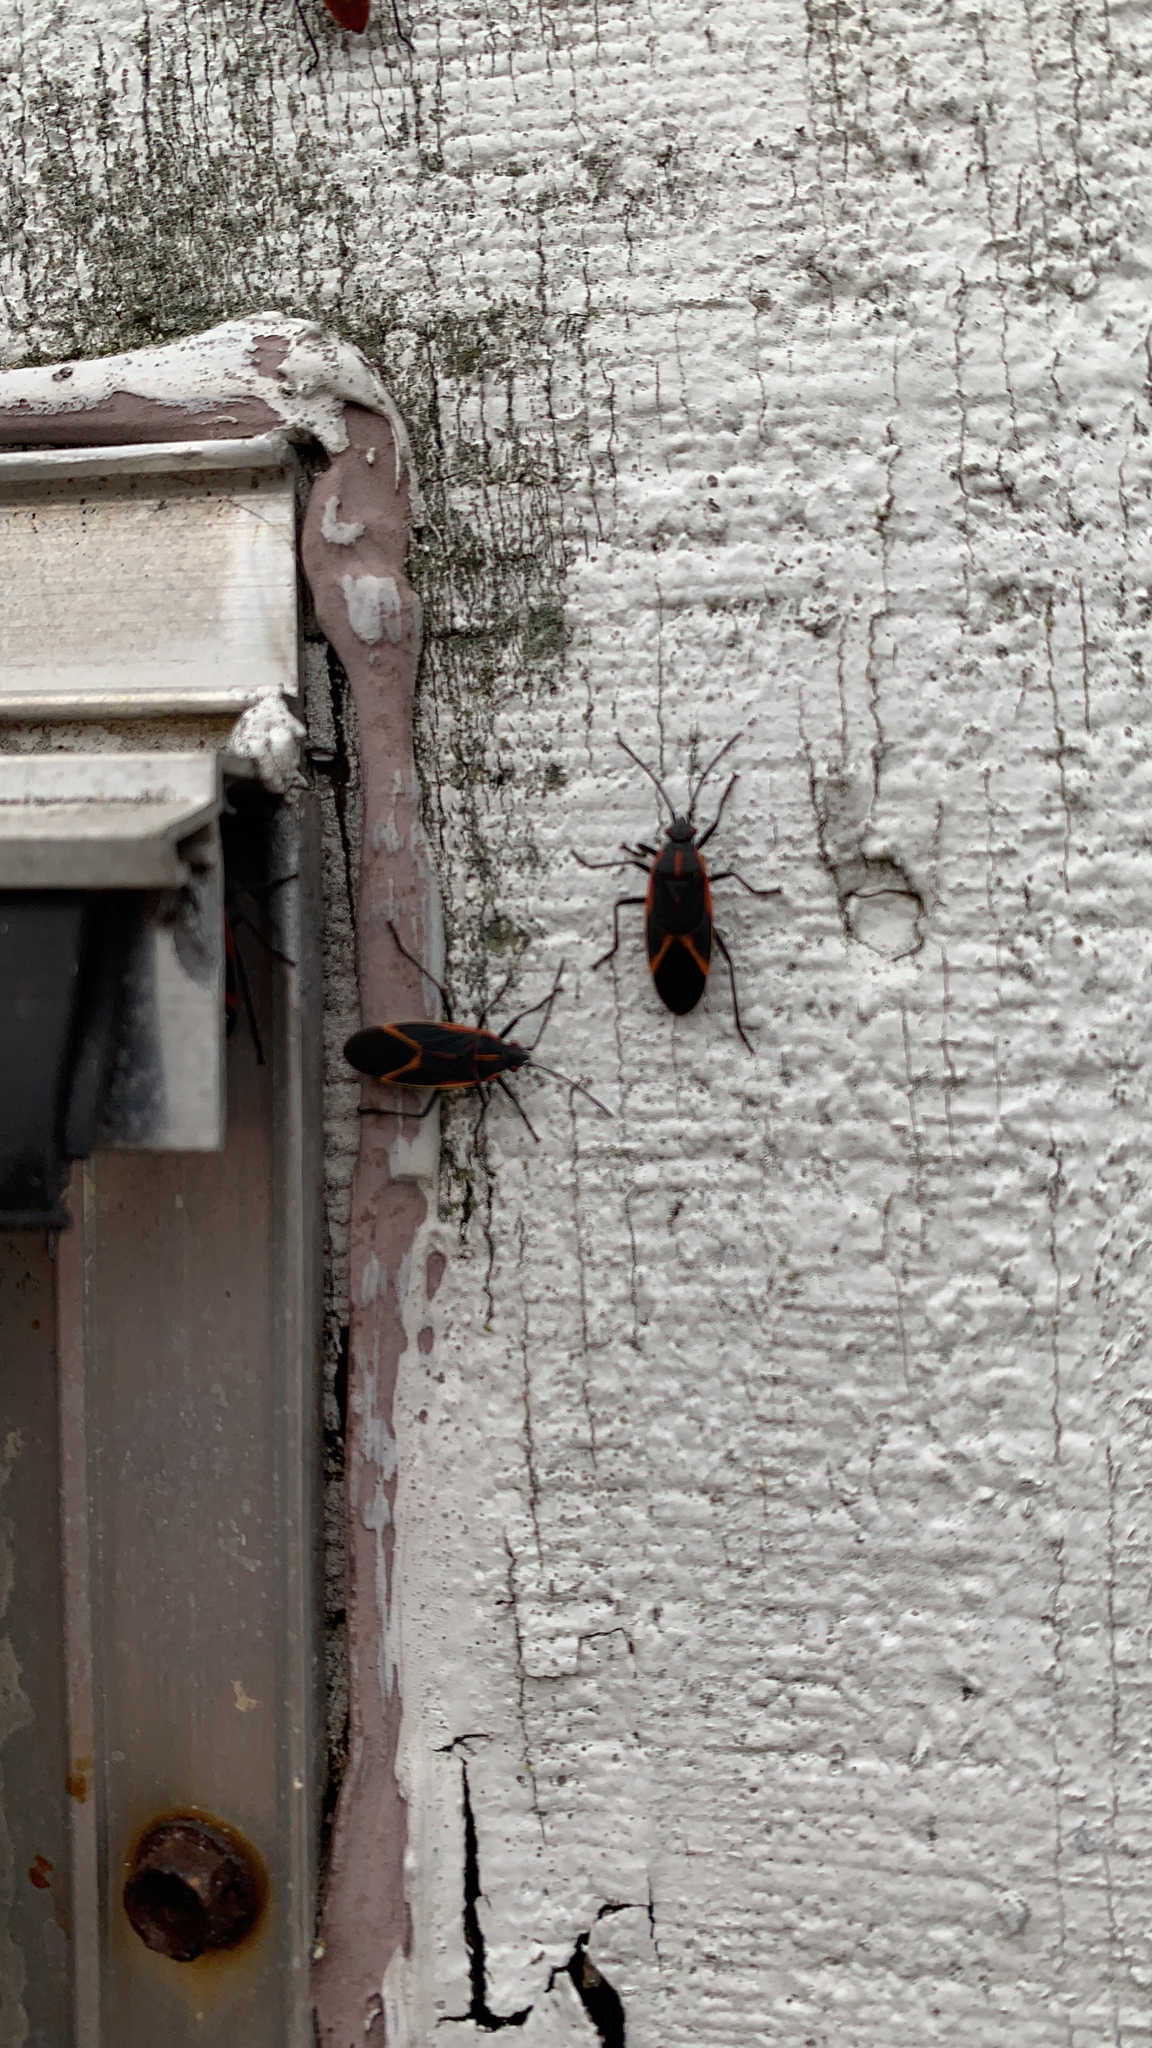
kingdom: Animalia
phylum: Arthropoda
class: Insecta
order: Hemiptera
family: Rhopalidae
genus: Boisea
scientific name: Boisea trivittata
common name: Boxelder bug
